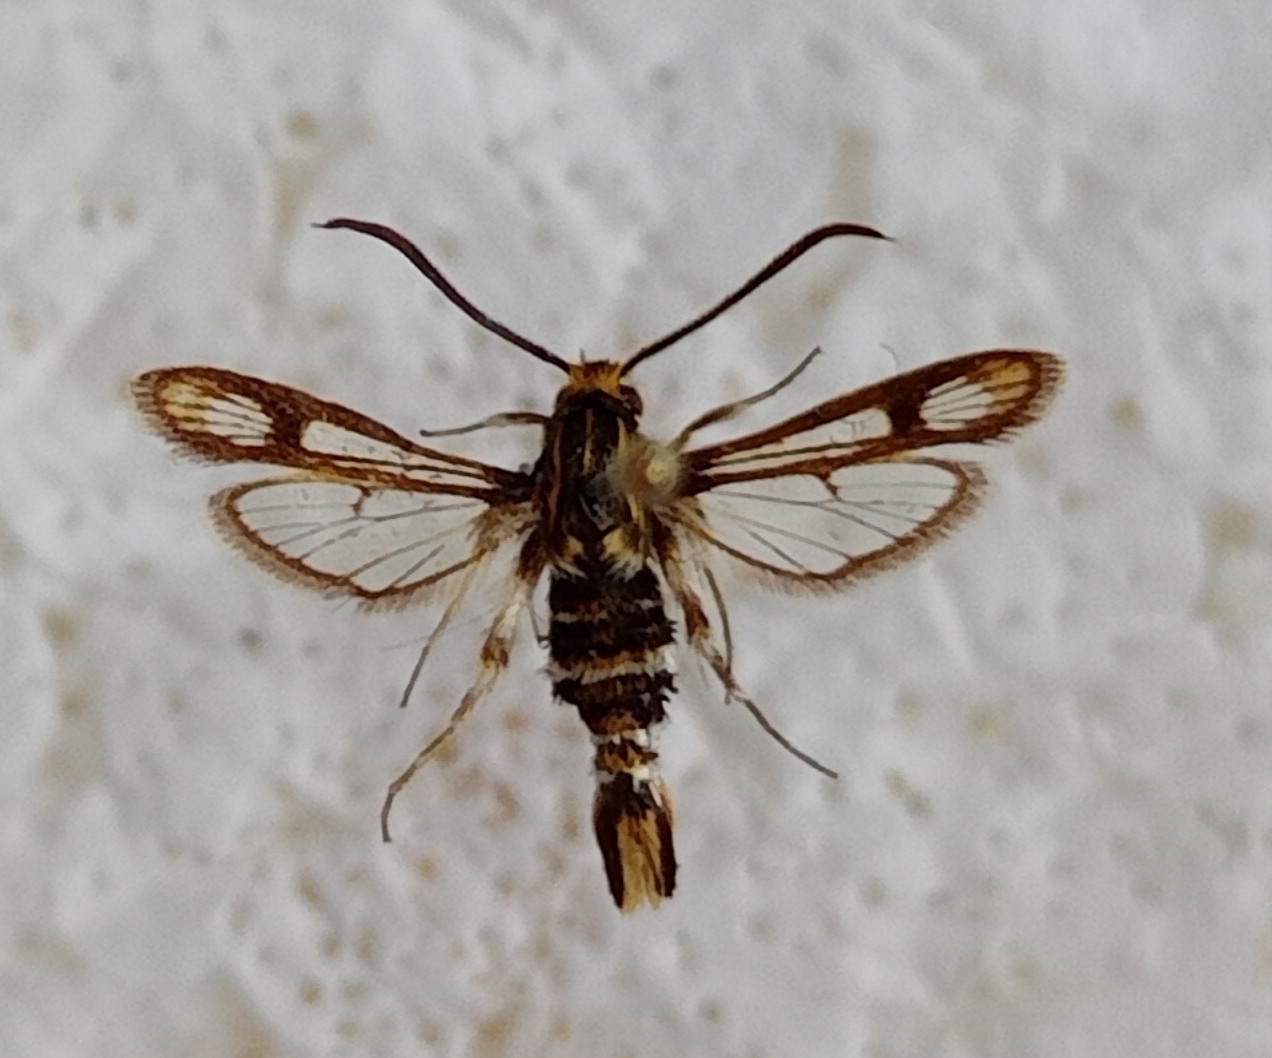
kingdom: Animalia
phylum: Arthropoda
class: Insecta
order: Lepidoptera
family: Sesiidae
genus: Chamaesphecia
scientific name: Chamaesphecia dumonti
